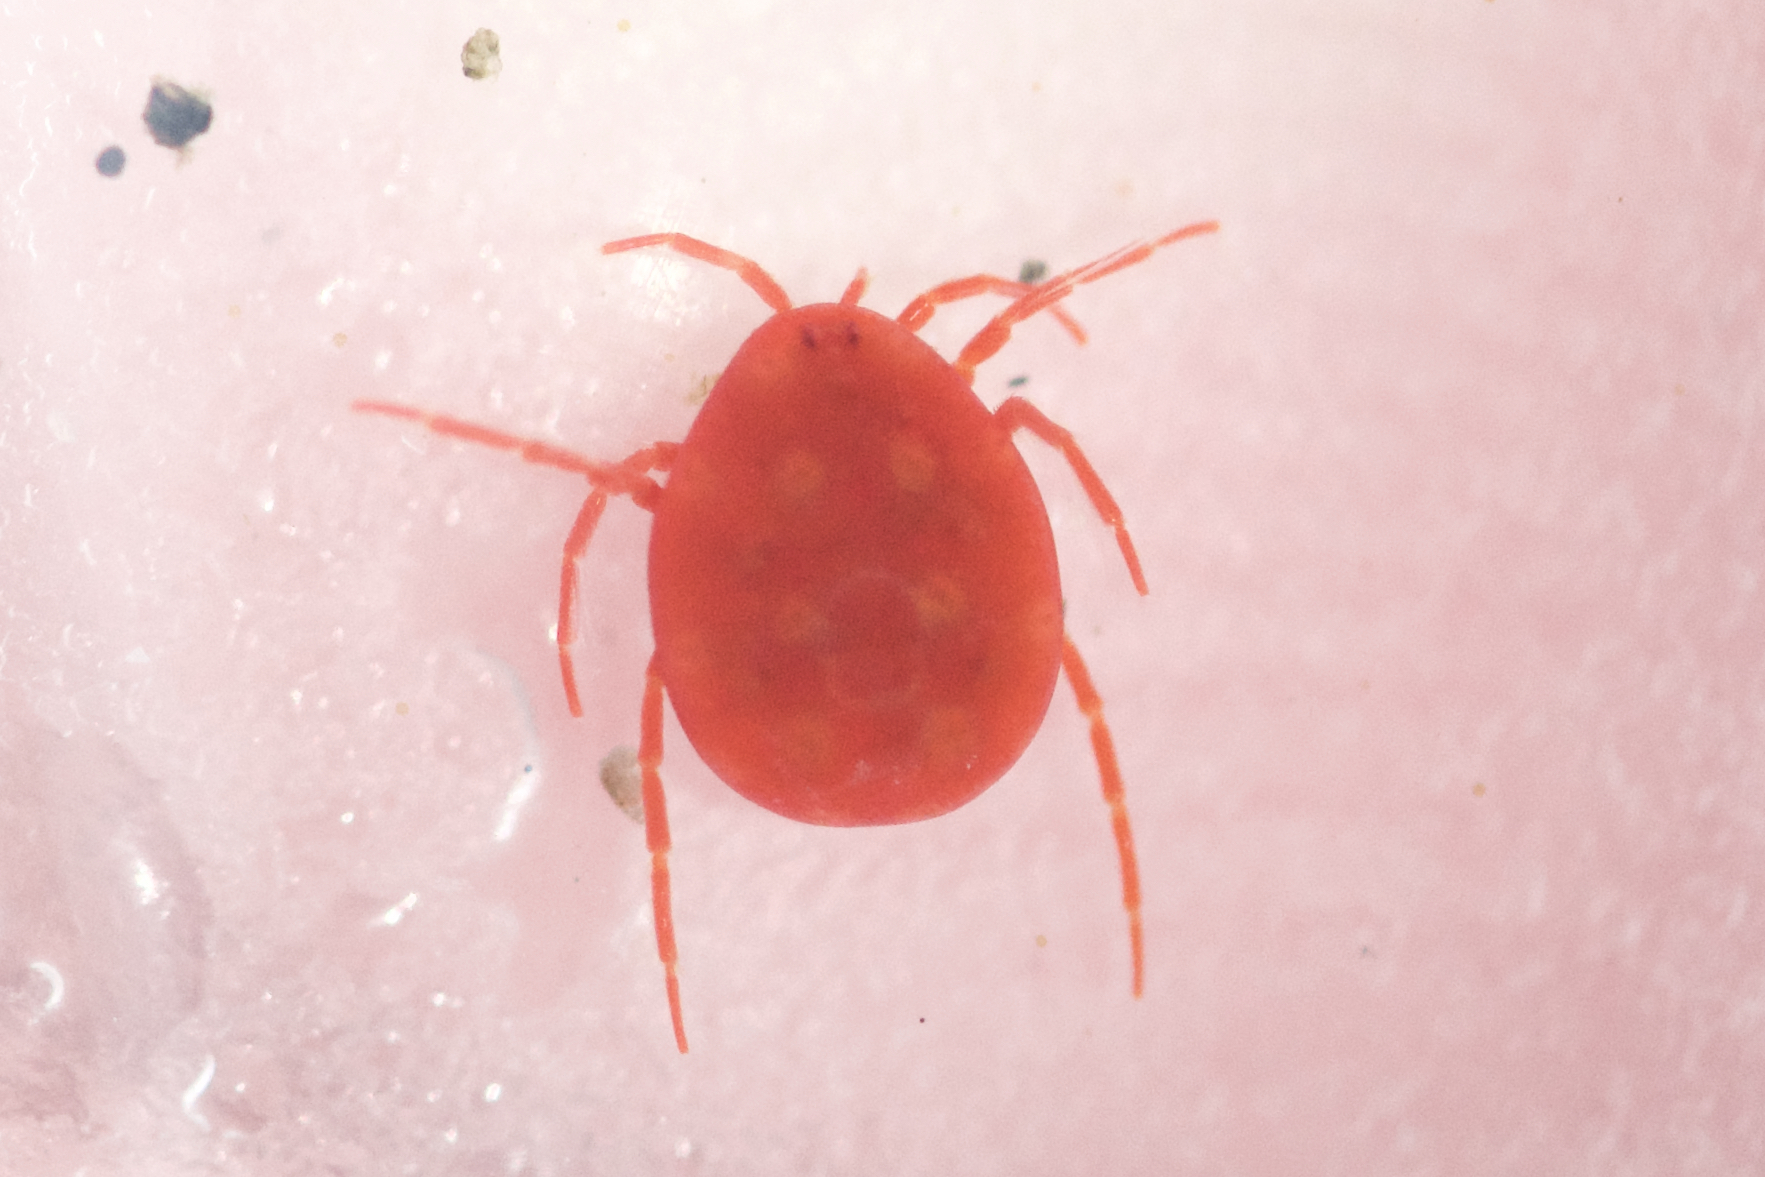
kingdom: Animalia
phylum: Arthropoda
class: Arachnida
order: Trombidiformes
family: Eylaidae
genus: Eylais
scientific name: Eylais
